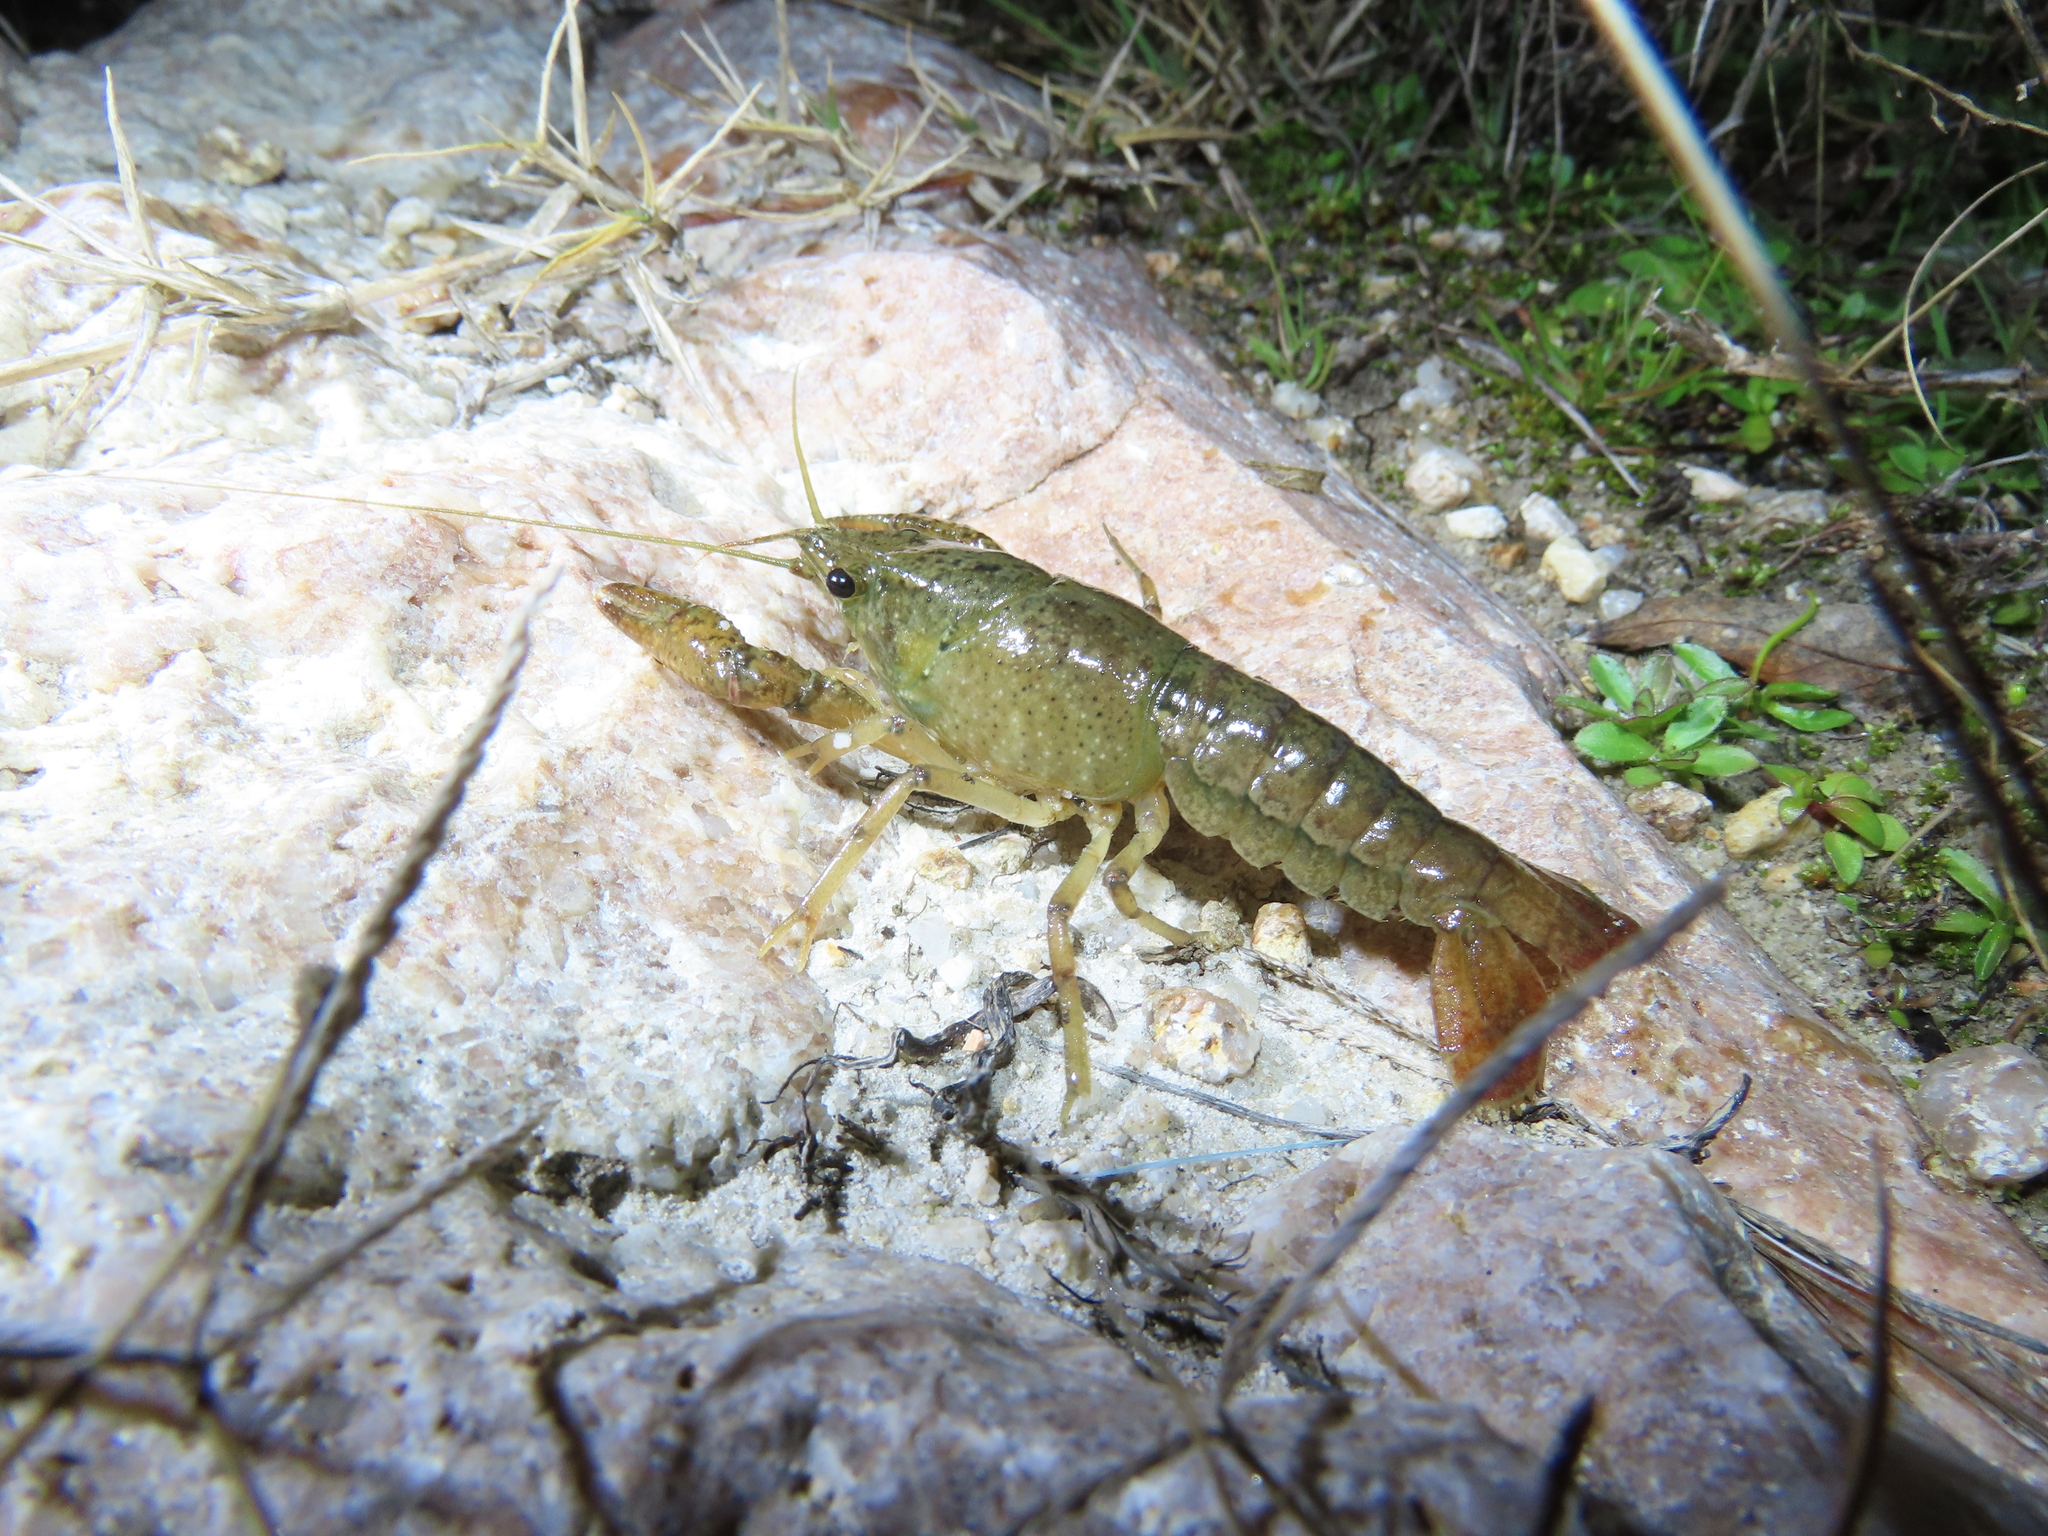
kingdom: Animalia
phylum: Arthropoda
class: Malacostraca
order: Decapoda
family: Cambaridae
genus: Procambarus
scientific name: Procambarus clarkii
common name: Red swamp crayfish
